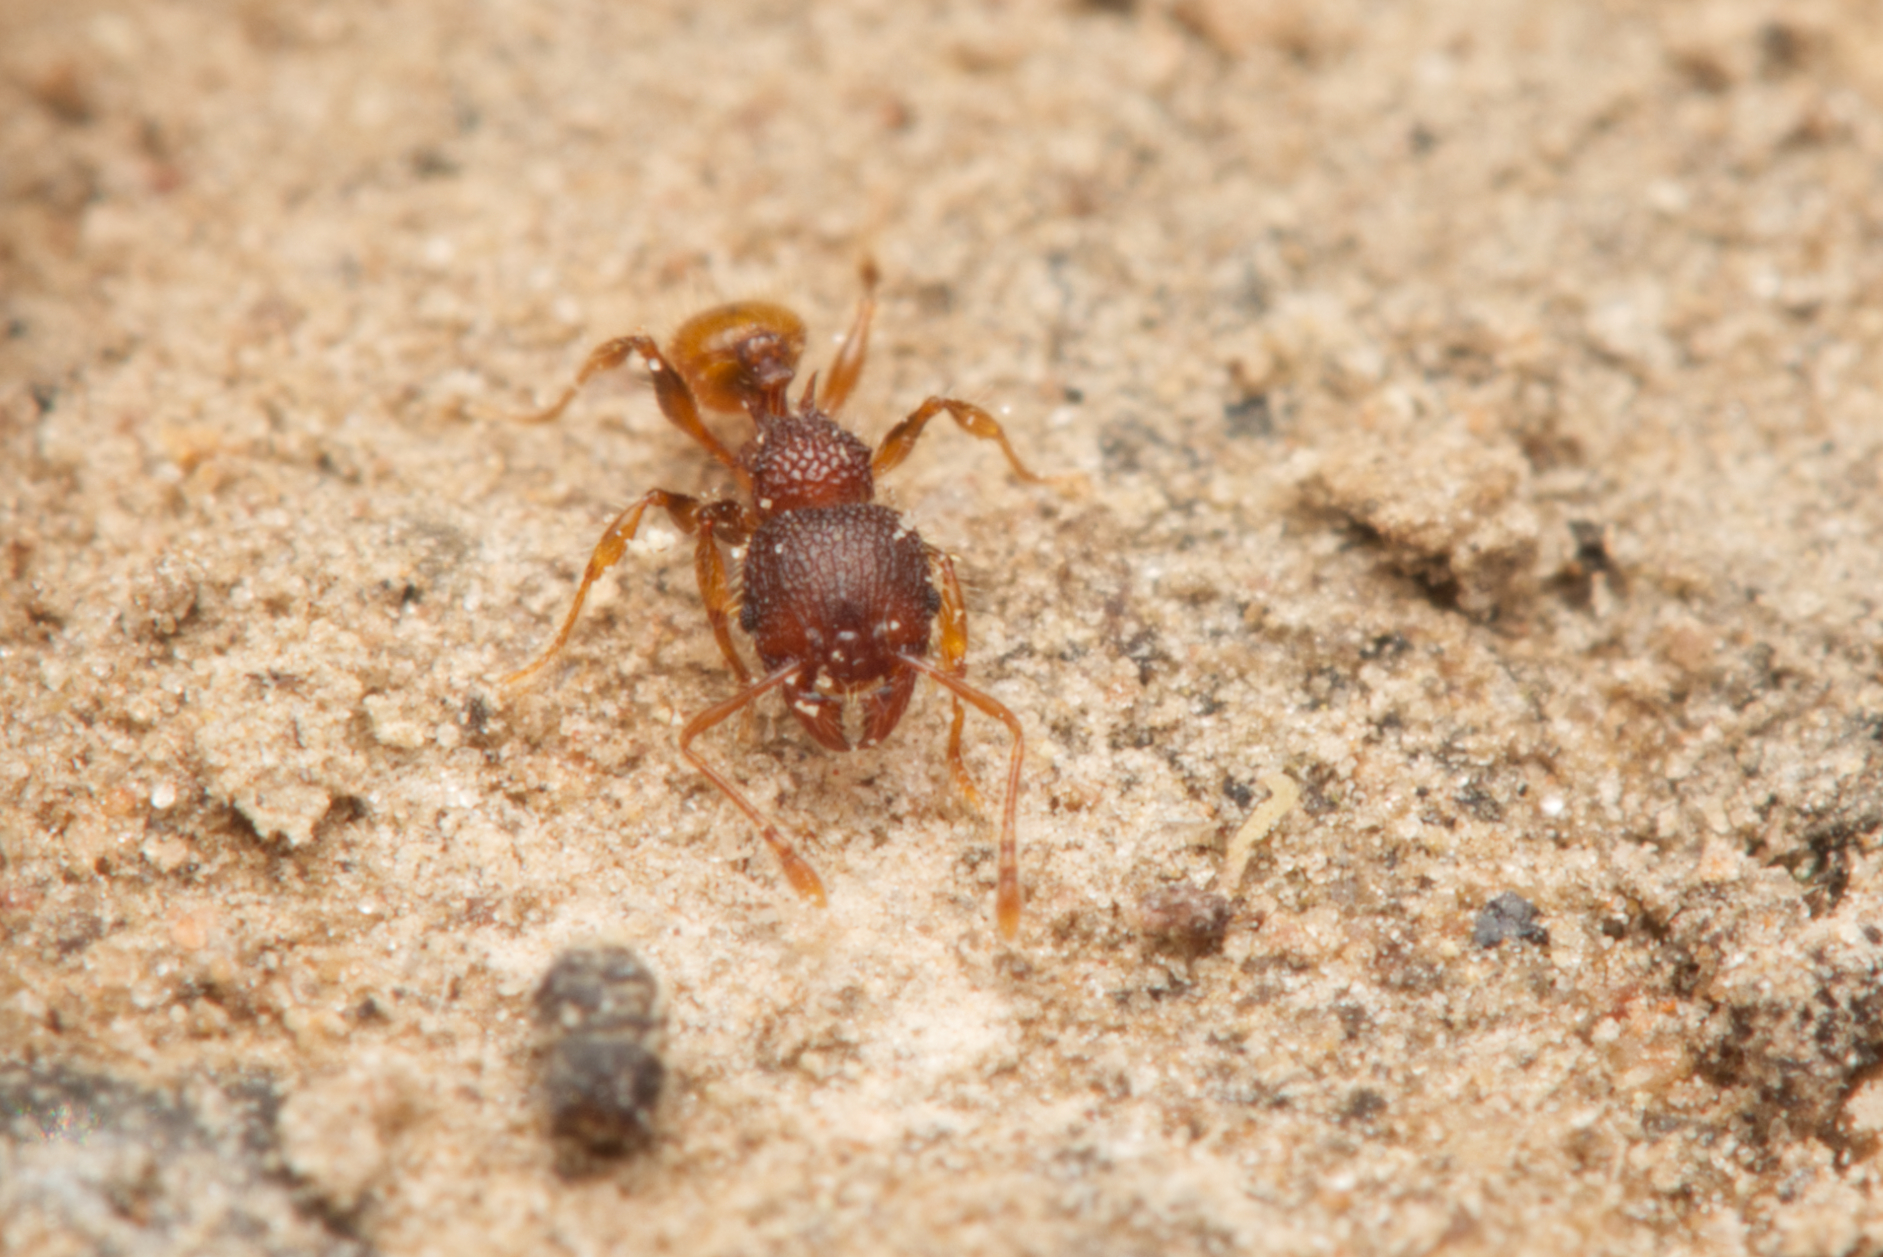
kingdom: Animalia
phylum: Arthropoda
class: Insecta
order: Hymenoptera
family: Formicidae
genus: Pheidole
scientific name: Pheidole longiceps
